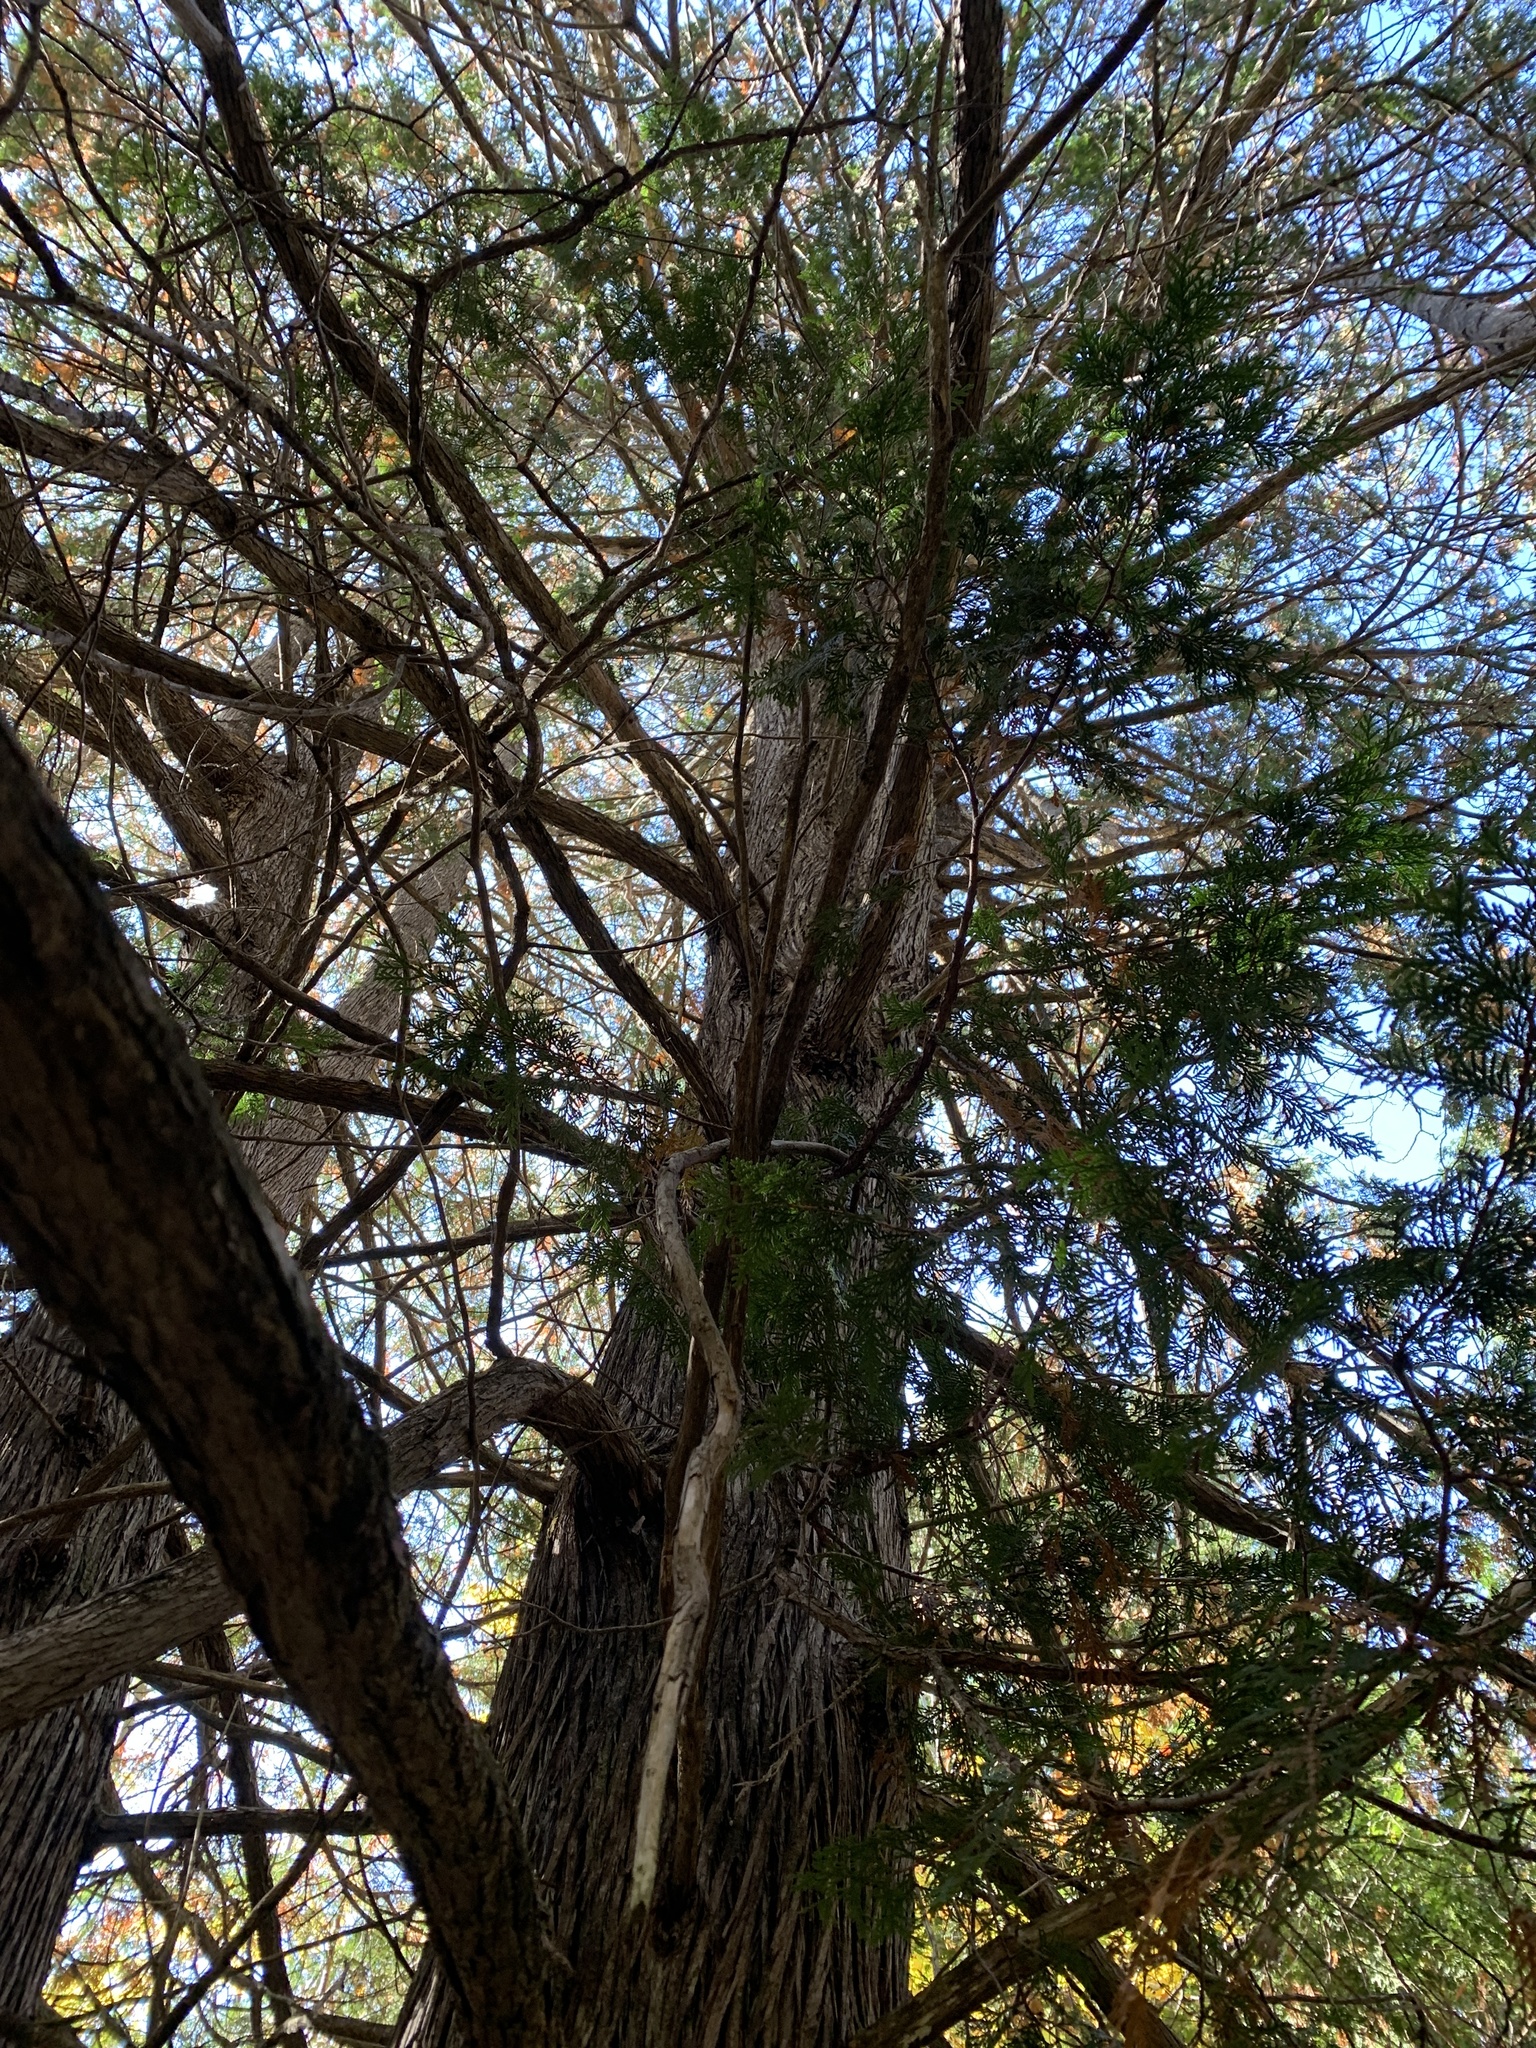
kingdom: Plantae
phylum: Tracheophyta
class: Pinopsida
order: Pinales
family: Cupressaceae
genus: Thuja
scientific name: Thuja occidentalis
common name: Northern white-cedar
